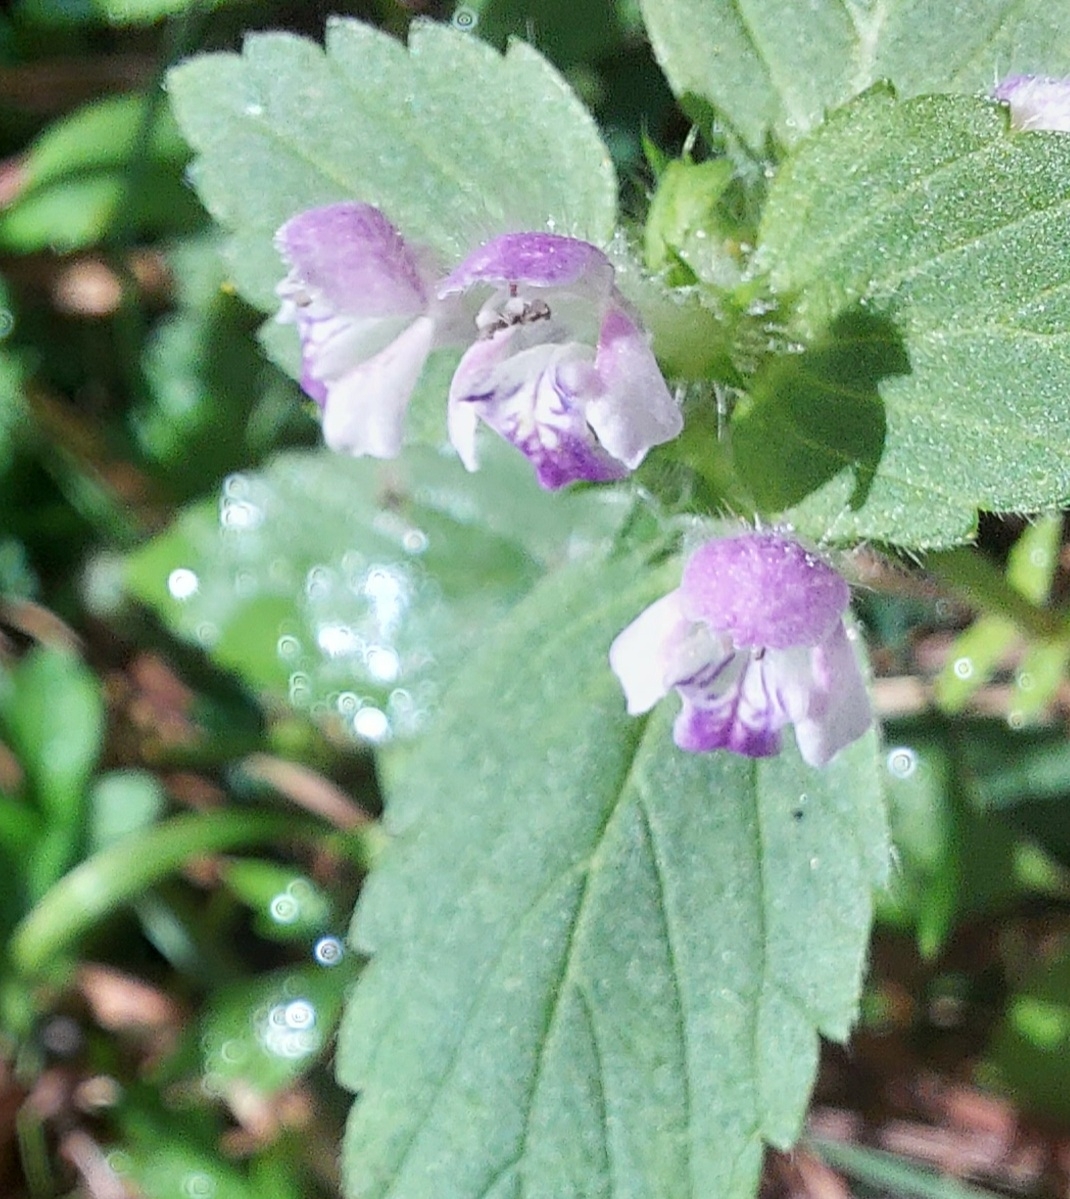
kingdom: Plantae
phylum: Tracheophyta
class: Magnoliopsida
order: Lamiales
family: Lamiaceae
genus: Galeopsis
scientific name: Galeopsis bifida
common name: Bifid hemp-nettle
